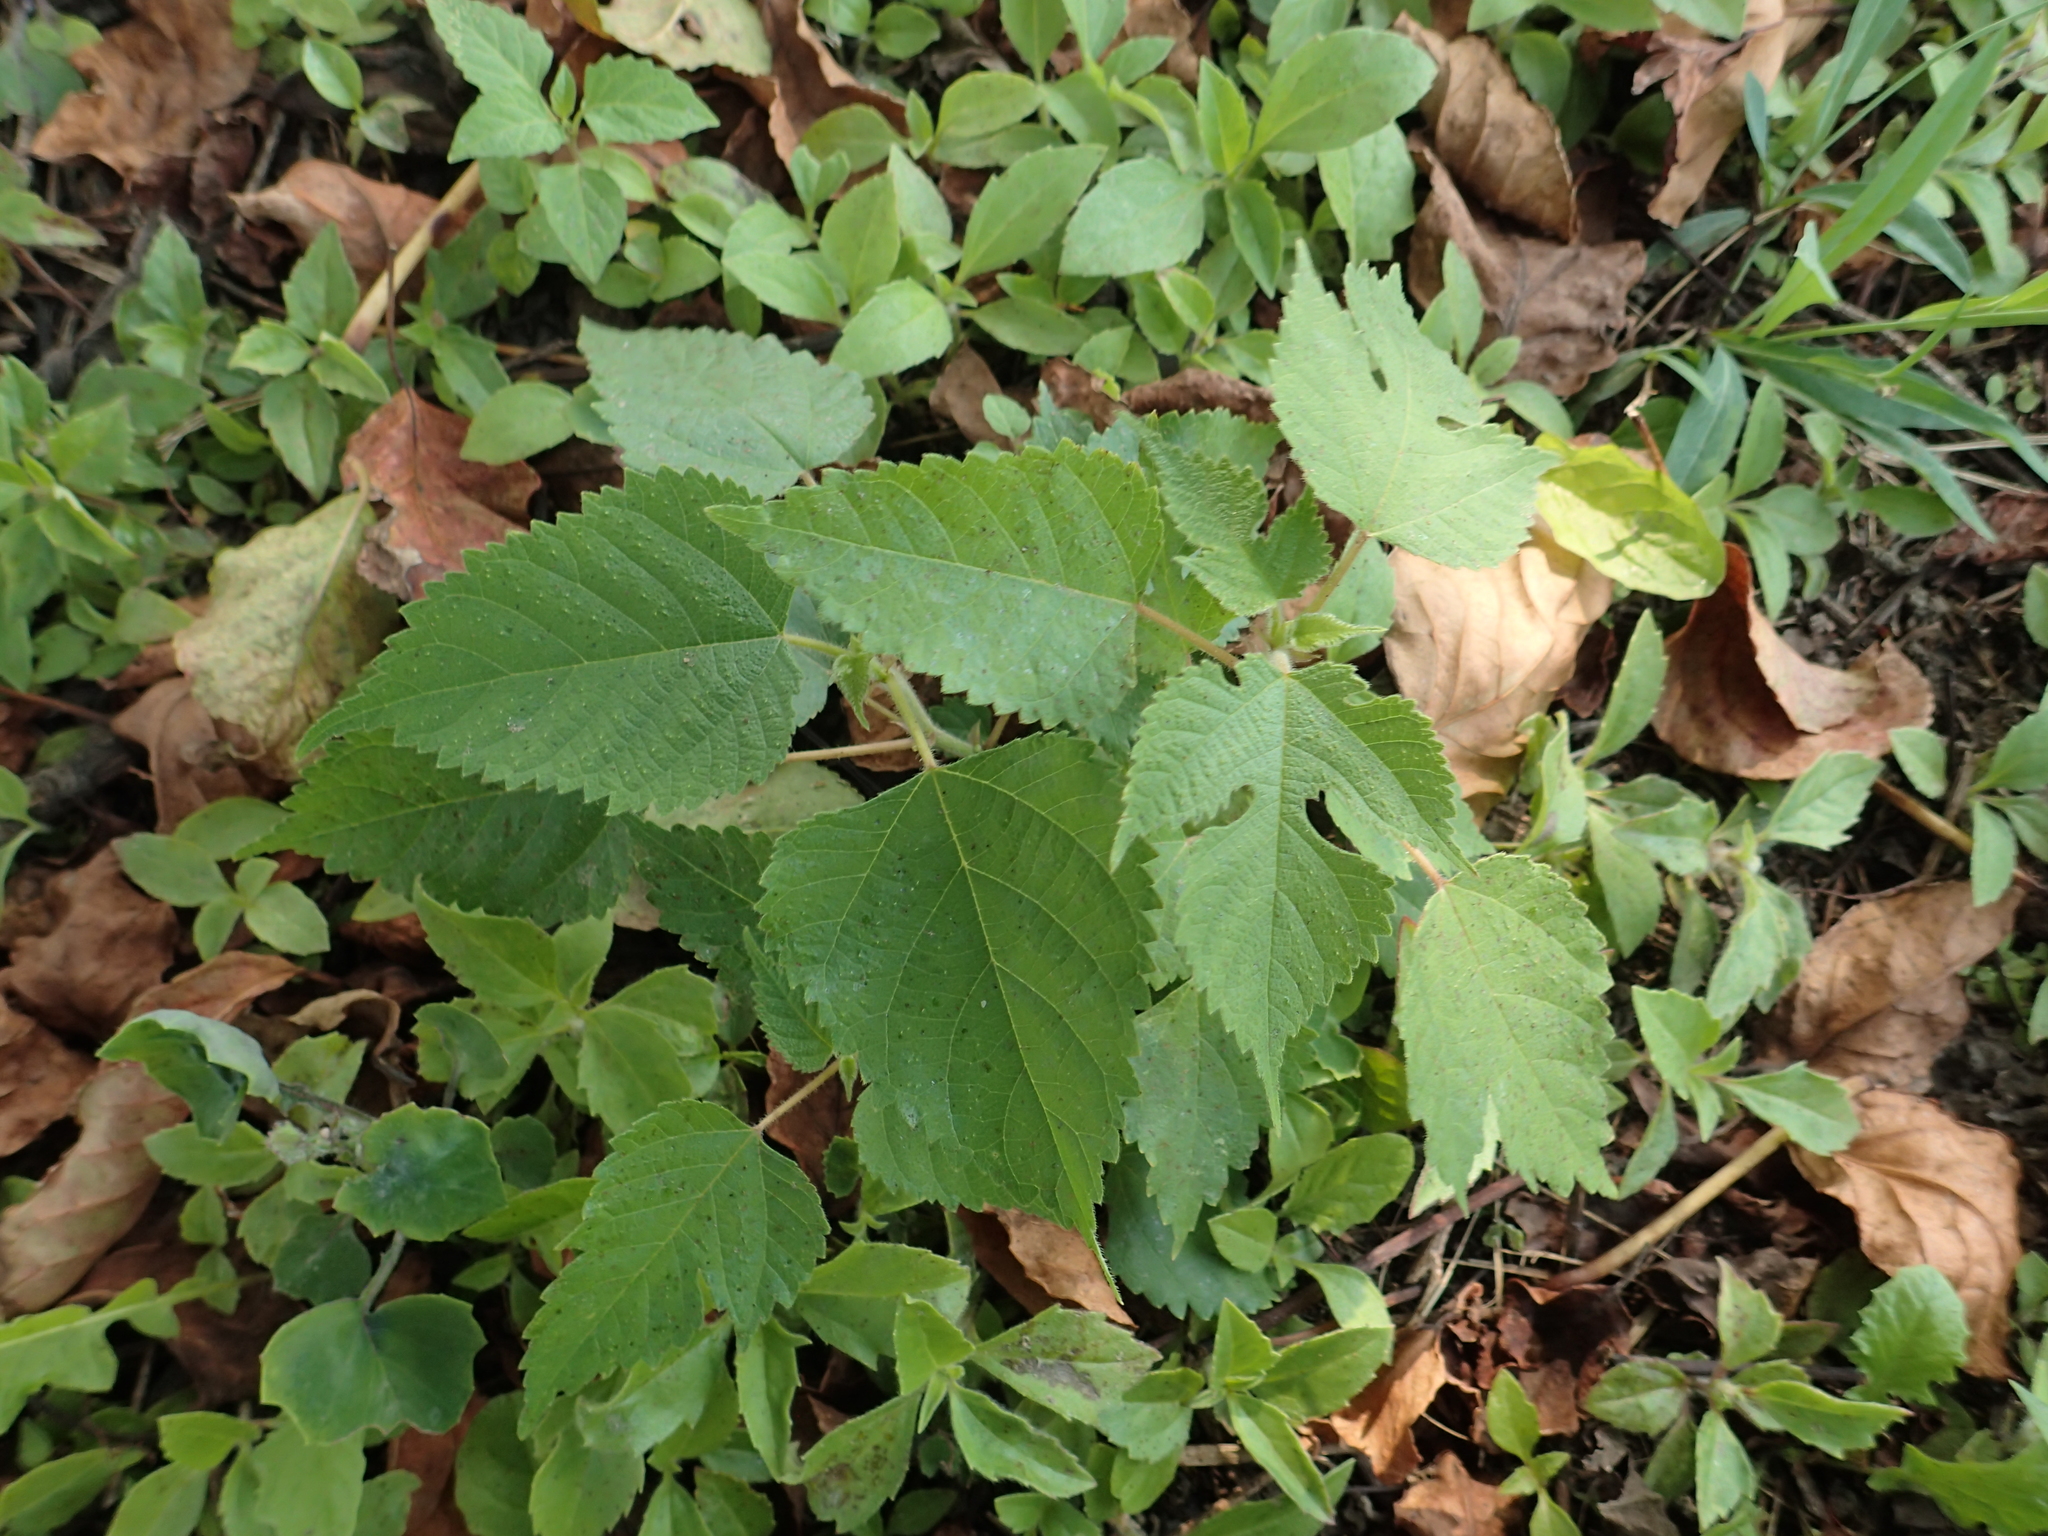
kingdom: Plantae
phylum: Tracheophyta
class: Magnoliopsida
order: Rosales
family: Moraceae
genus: Broussonetia
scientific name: Broussonetia papyrifera
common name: Paper mulberry
